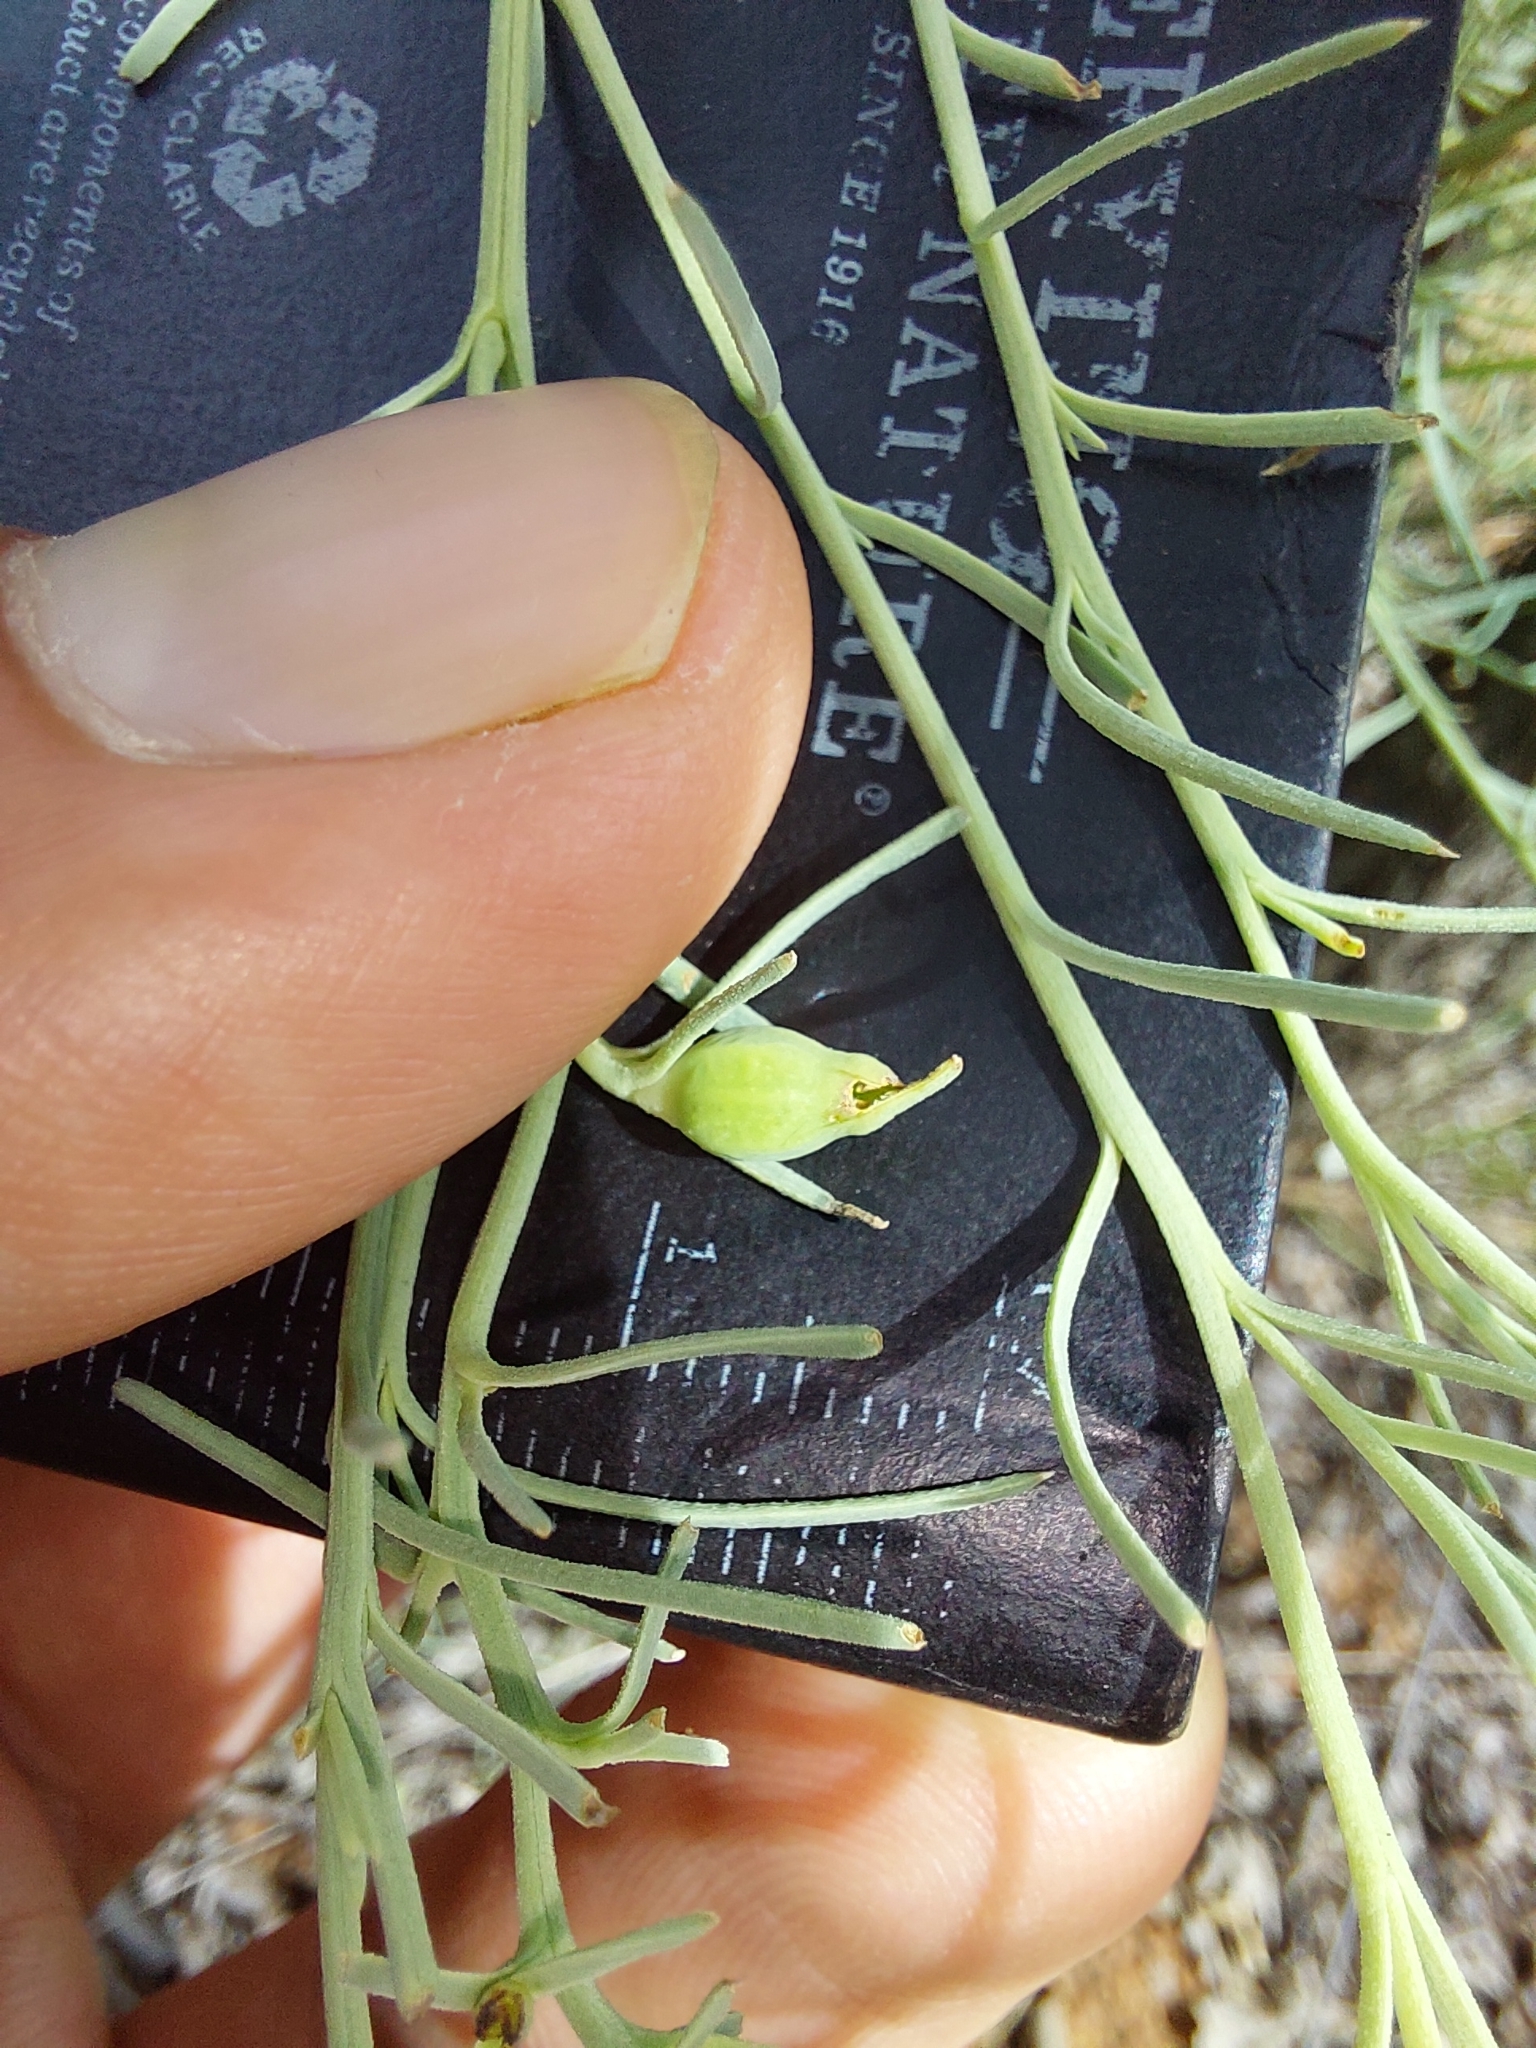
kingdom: Plantae
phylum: Tracheophyta
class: Magnoliopsida
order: Santalales
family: Thesiaceae
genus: Thesium
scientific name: Thesium celatum
